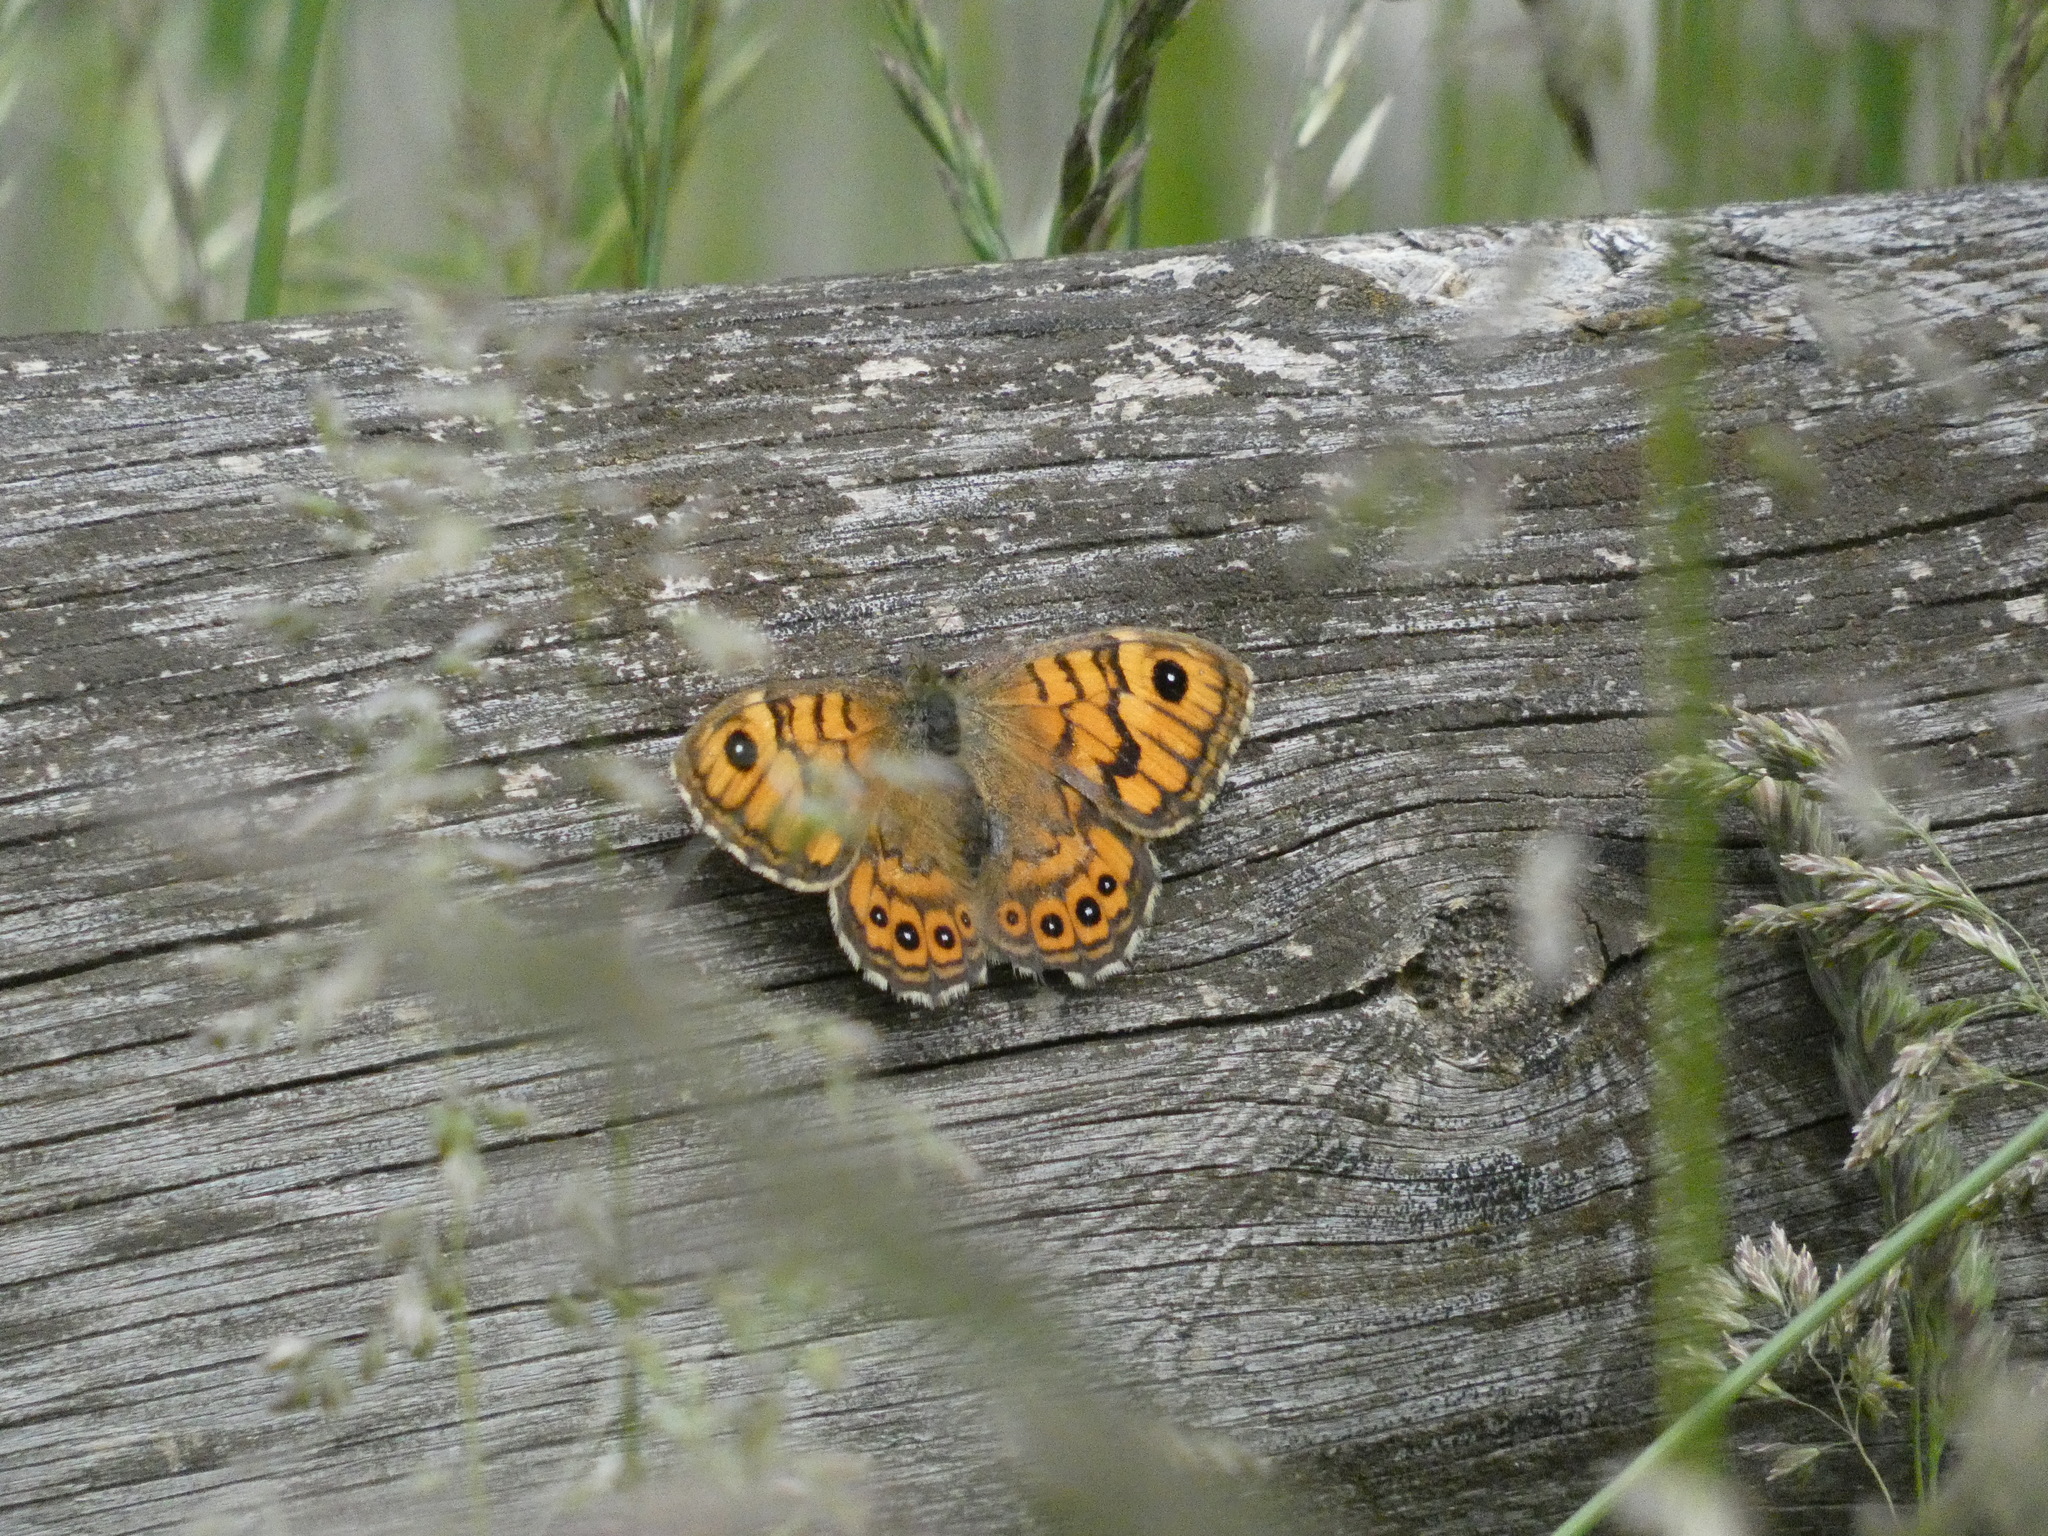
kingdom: Animalia
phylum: Arthropoda
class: Insecta
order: Lepidoptera
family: Nymphalidae
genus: Pararge
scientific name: Pararge Lasiommata megera
